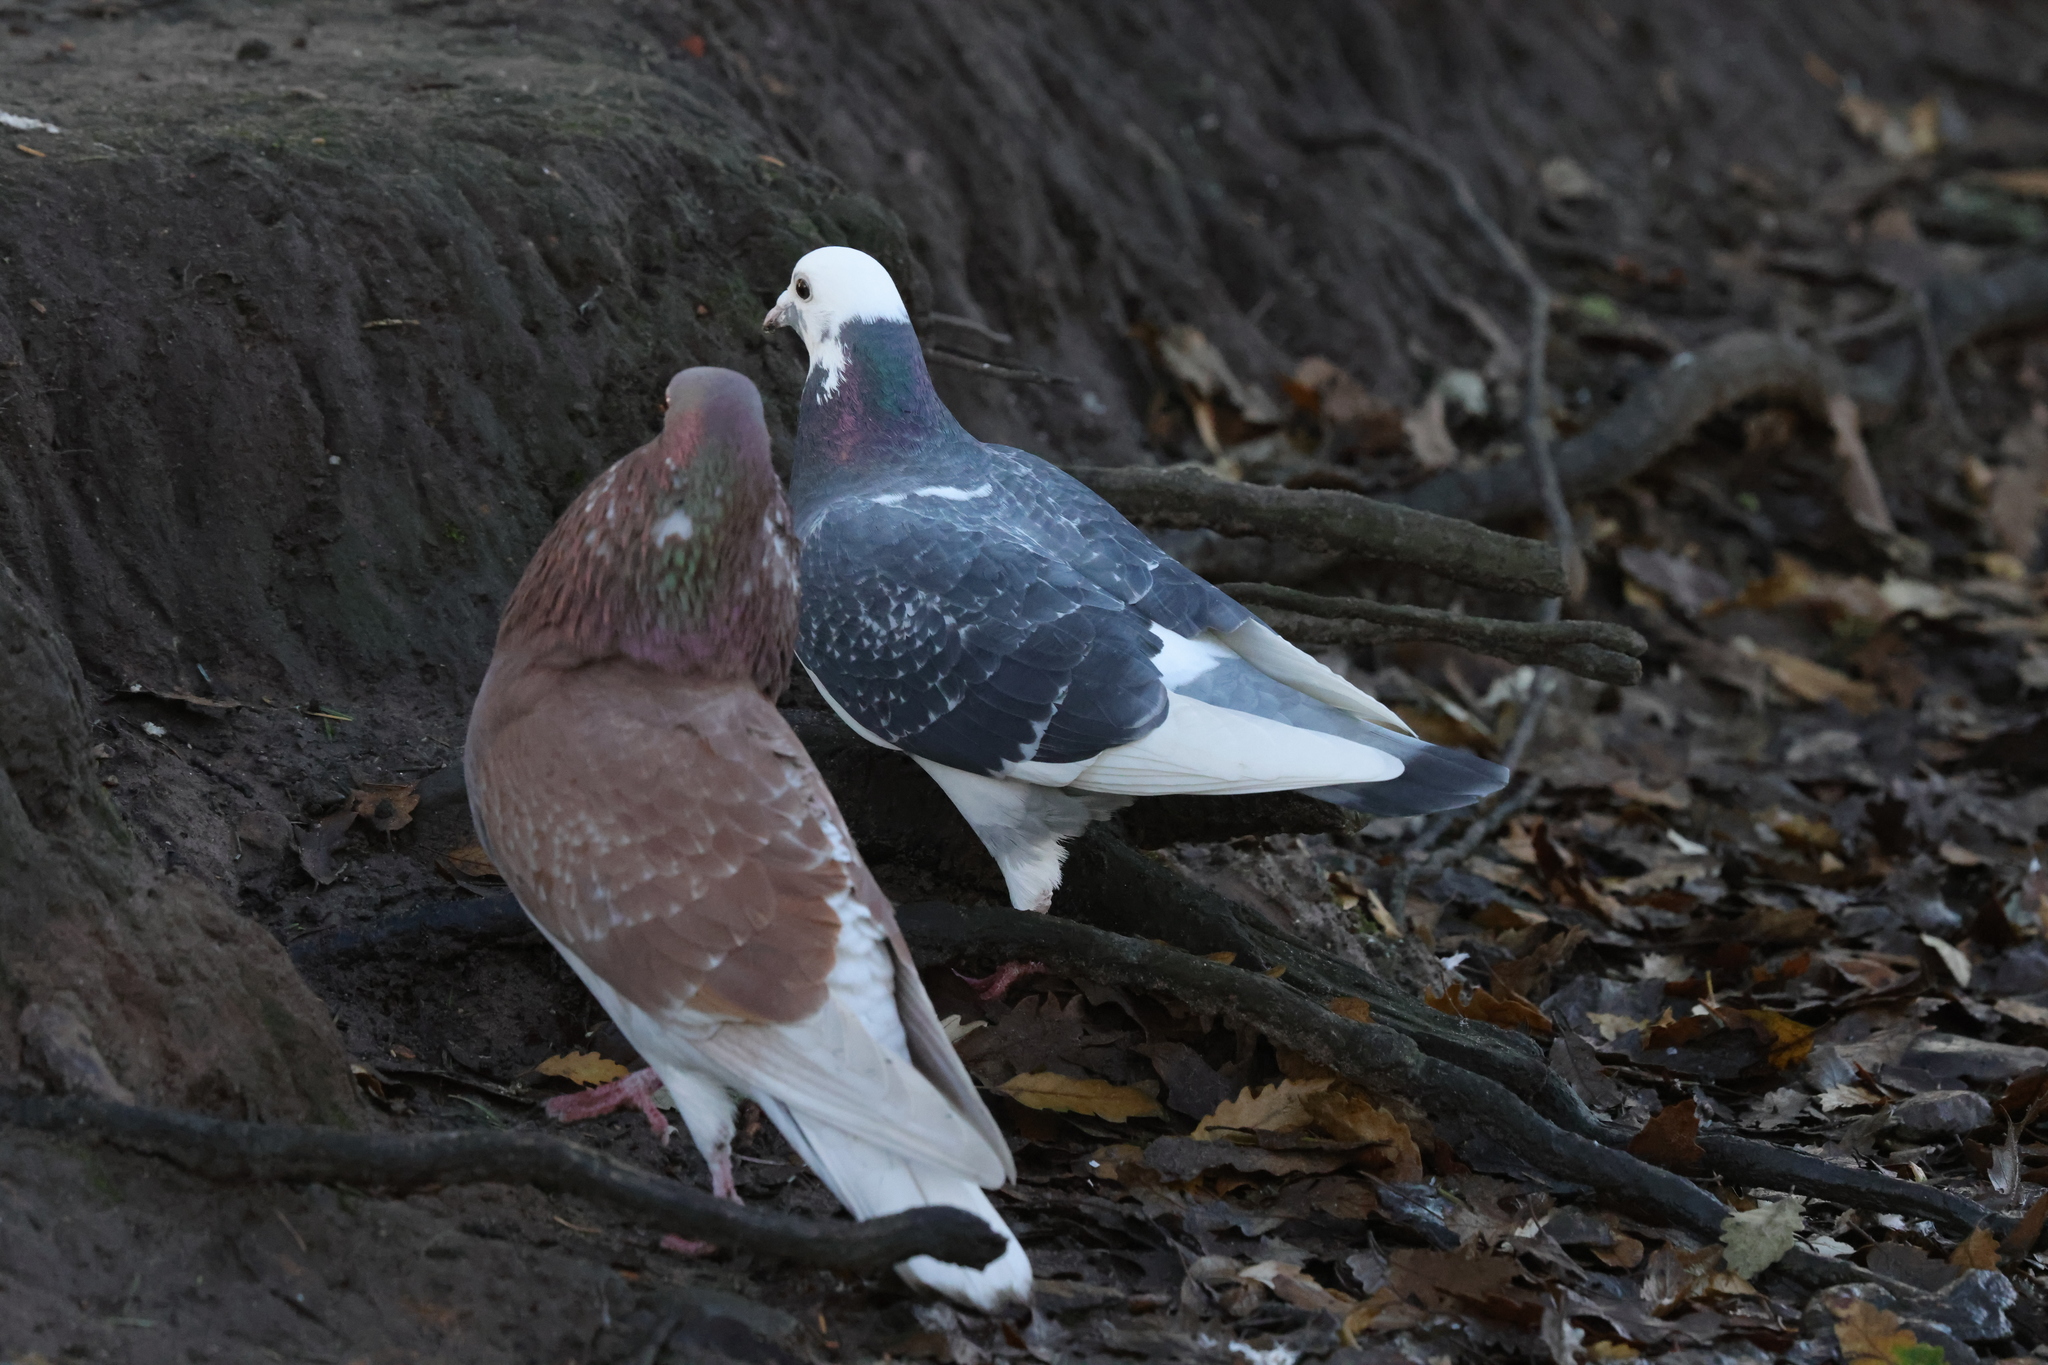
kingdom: Animalia
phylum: Chordata
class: Aves
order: Columbiformes
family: Columbidae
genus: Columba
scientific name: Columba livia
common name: Rock pigeon
